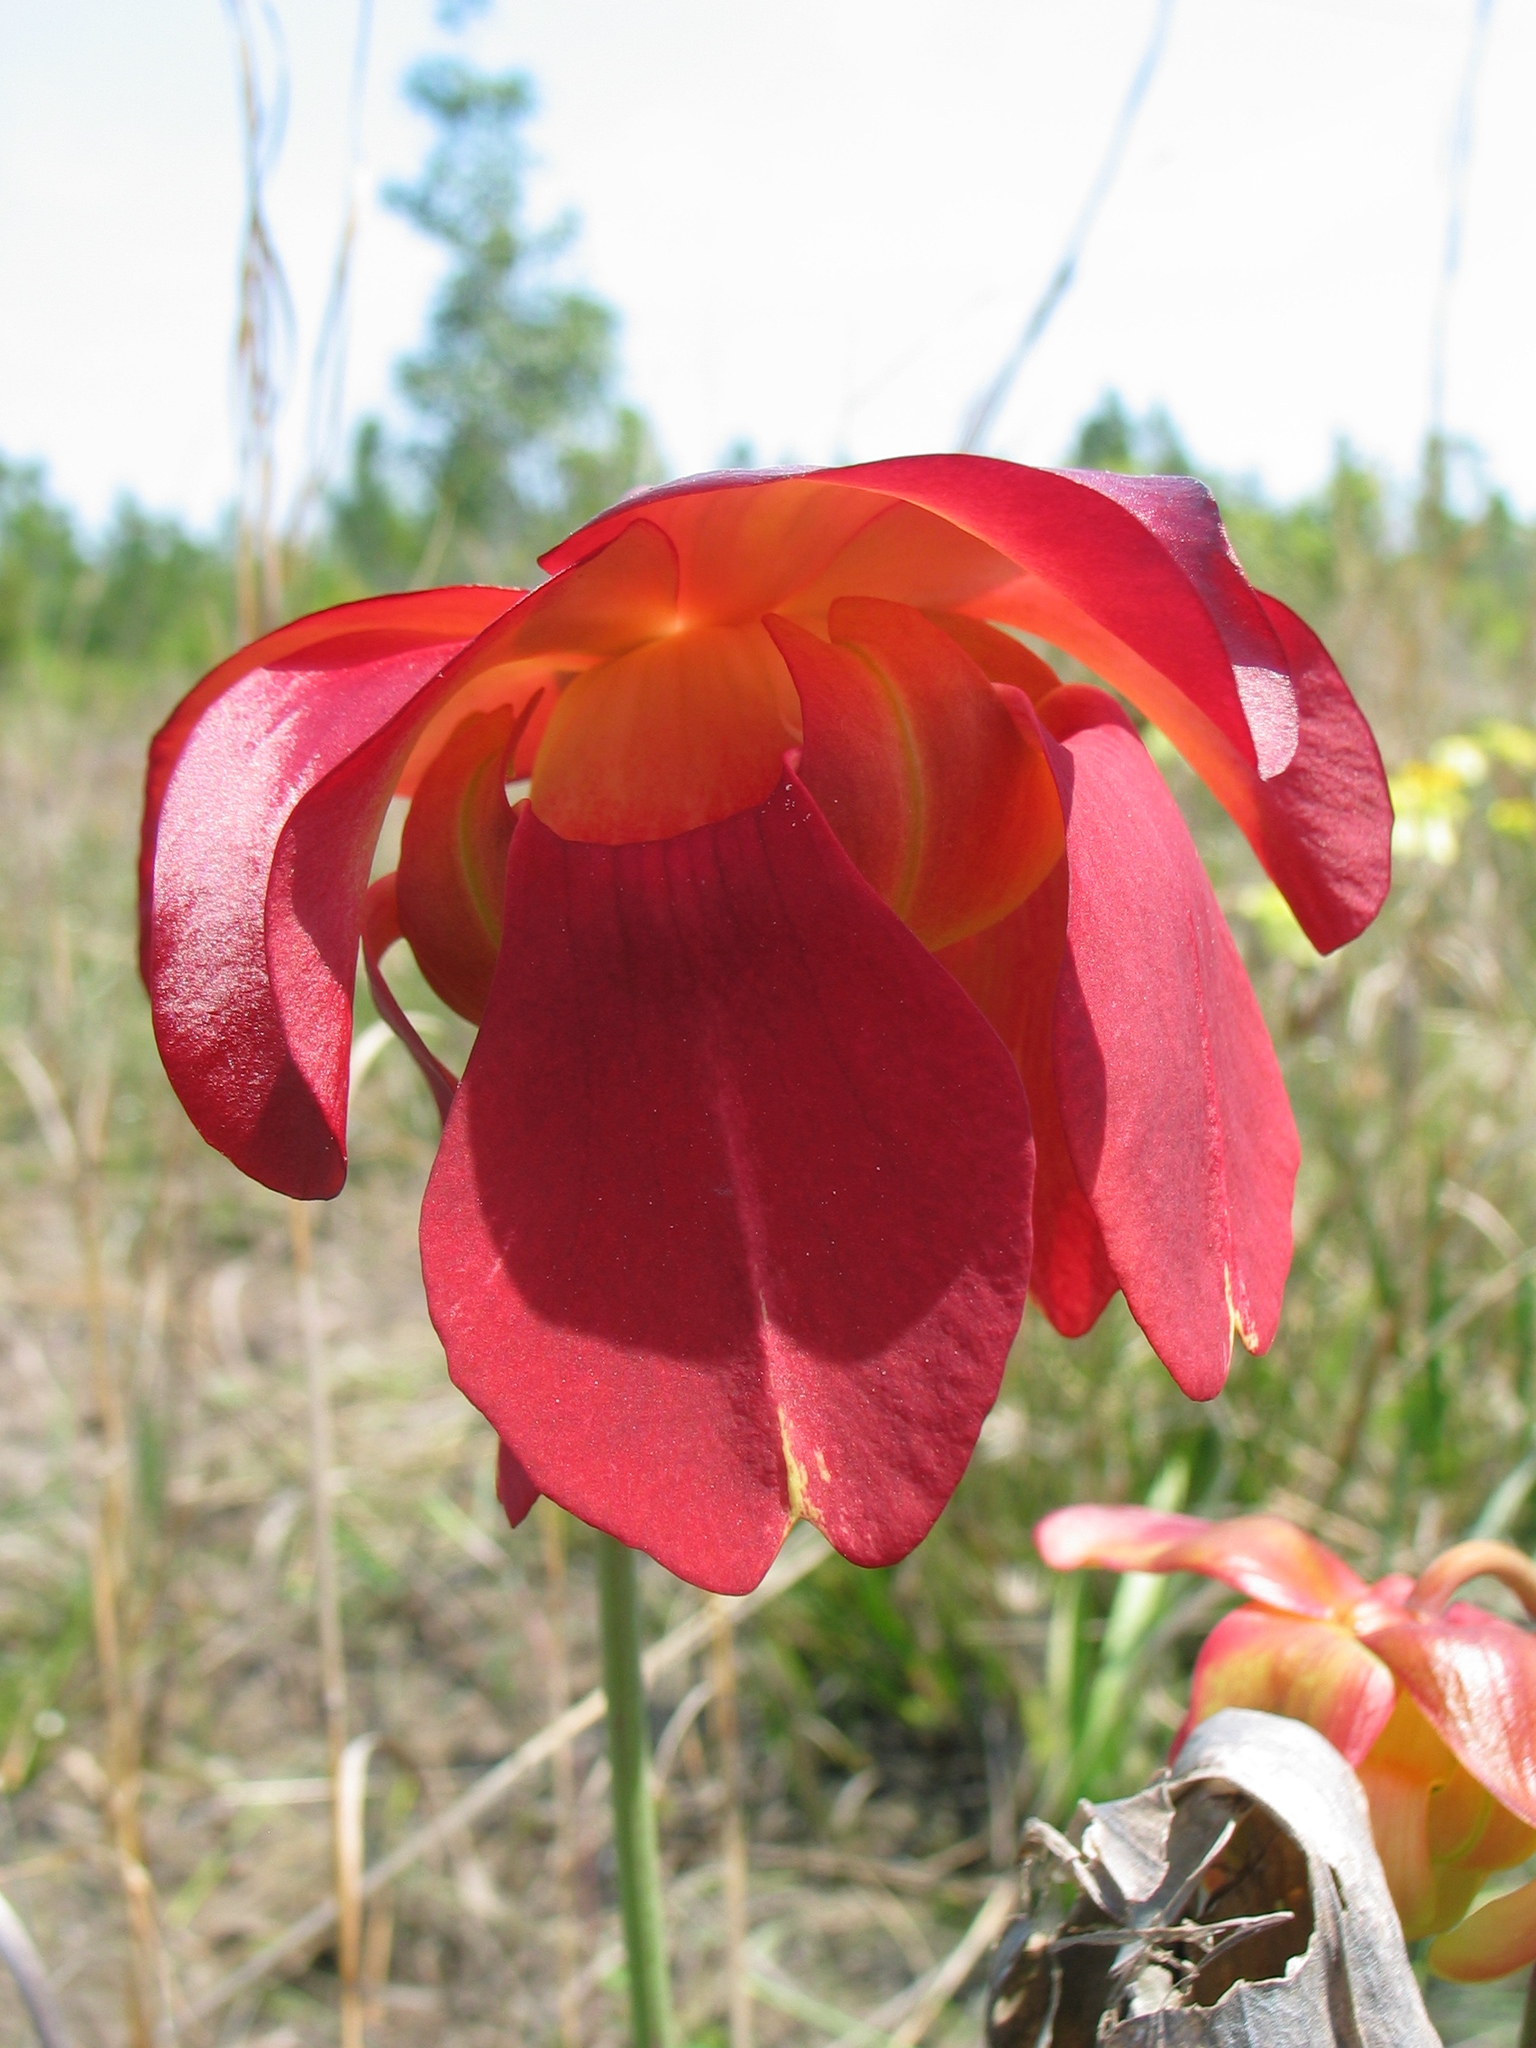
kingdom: Plantae
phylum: Tracheophyta
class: Magnoliopsida
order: Ericales
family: Sarraceniaceae
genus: Sarracenia
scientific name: Sarracenia leucophylla
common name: Purple trumpetleaf
